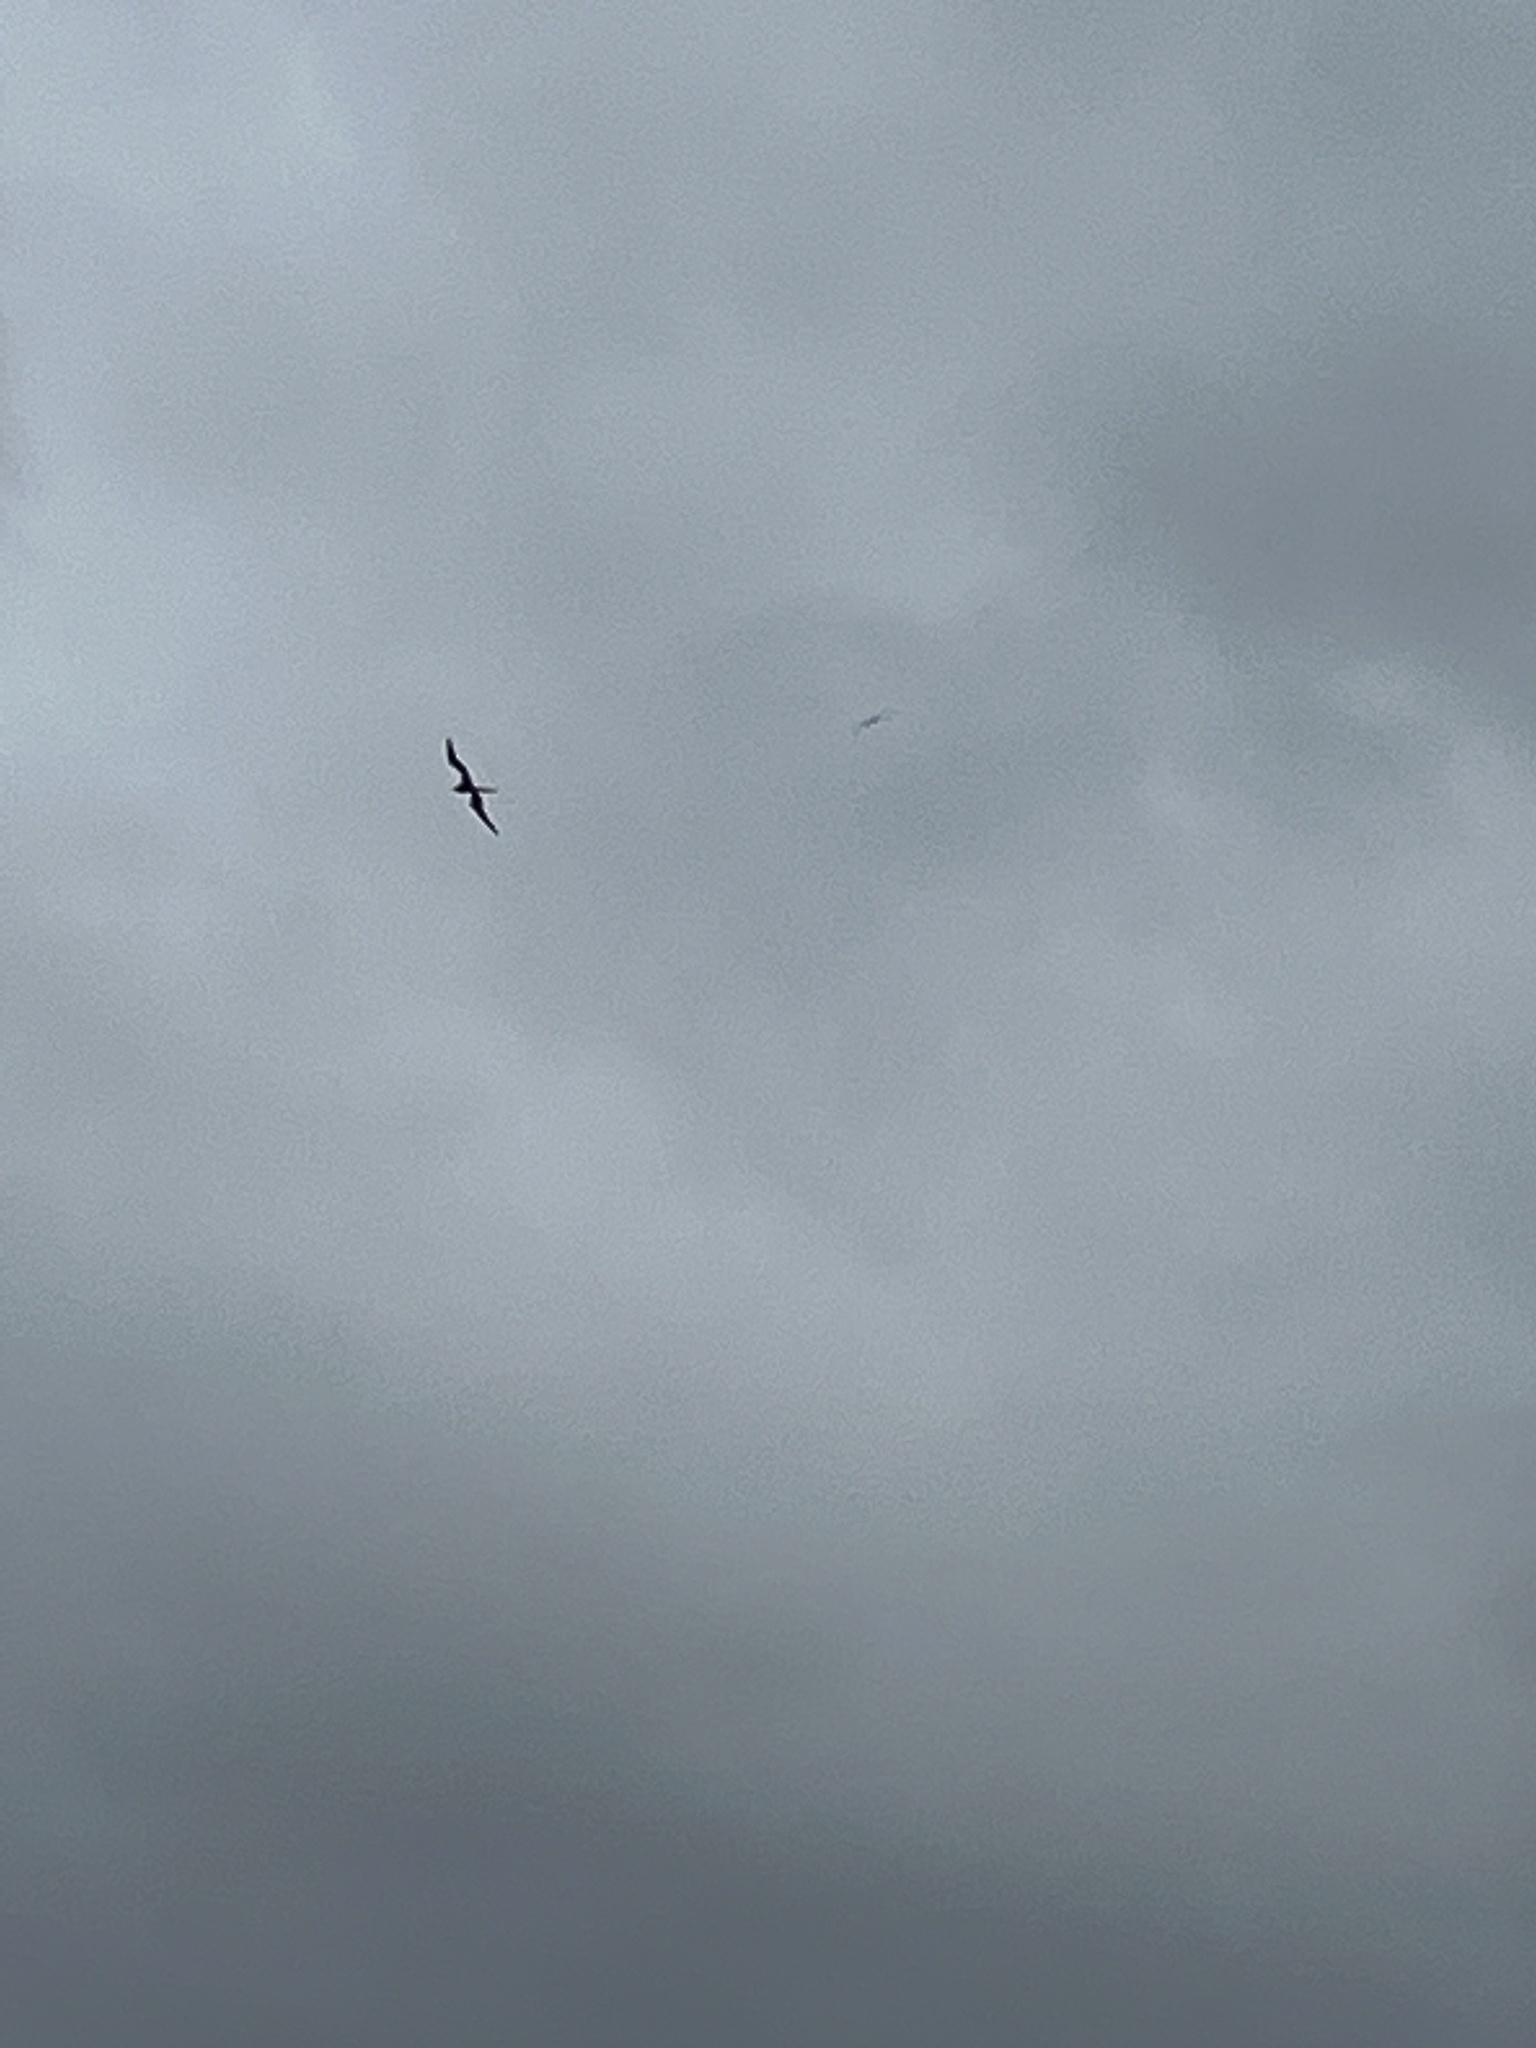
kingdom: Animalia
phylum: Chordata
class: Aves
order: Suliformes
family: Fregatidae
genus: Fregata
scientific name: Fregata magnificens
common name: Magnificent frigatebird
